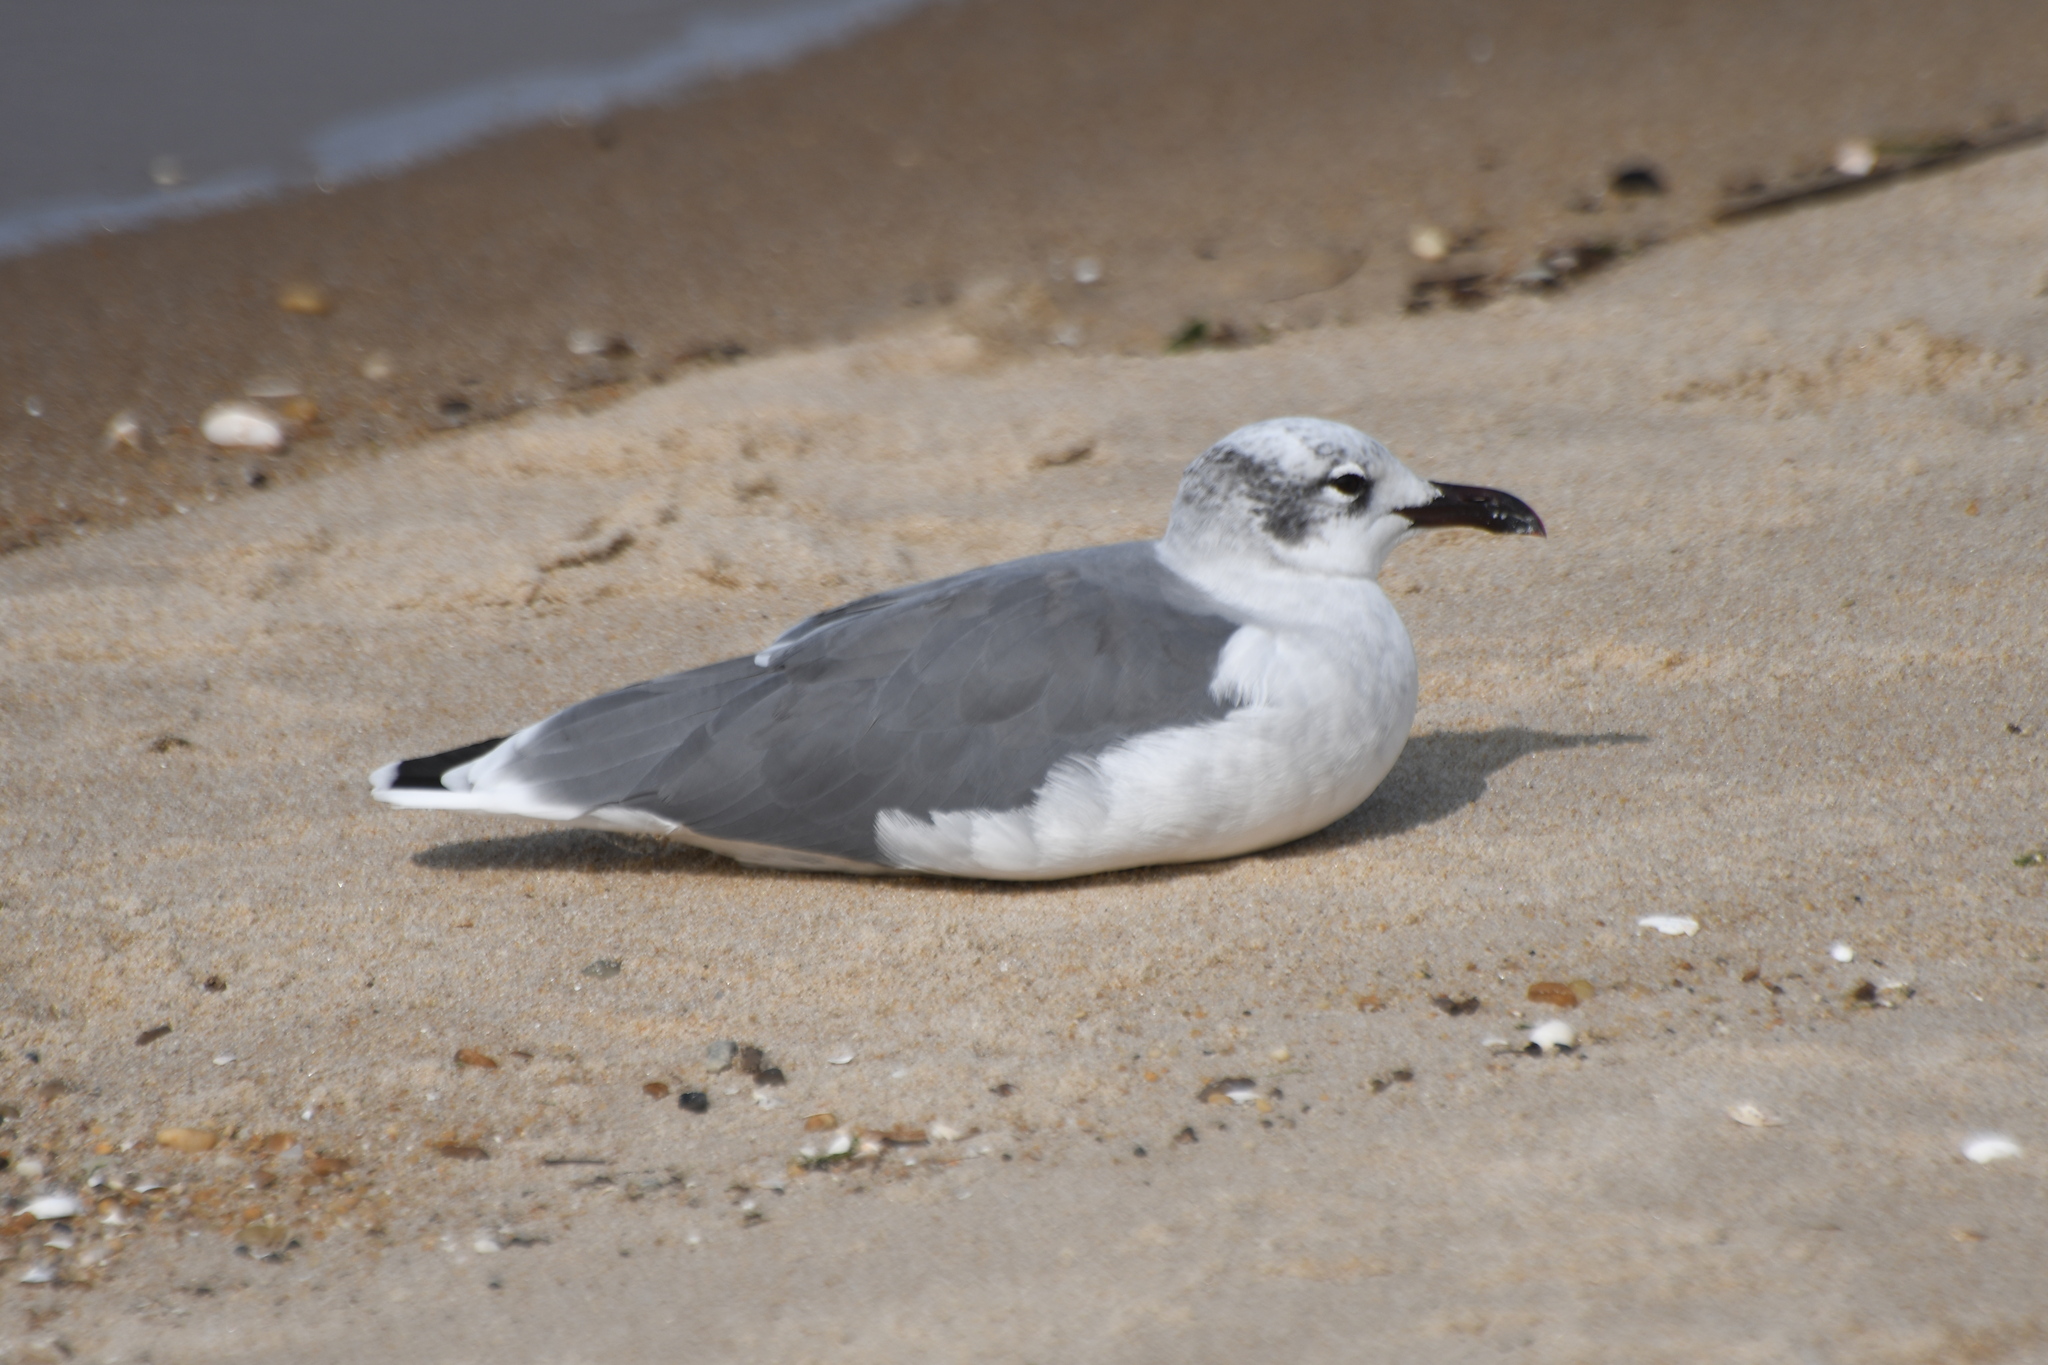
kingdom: Animalia
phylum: Chordata
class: Aves
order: Charadriiformes
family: Laridae
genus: Leucophaeus
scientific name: Leucophaeus atricilla
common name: Laughing gull
